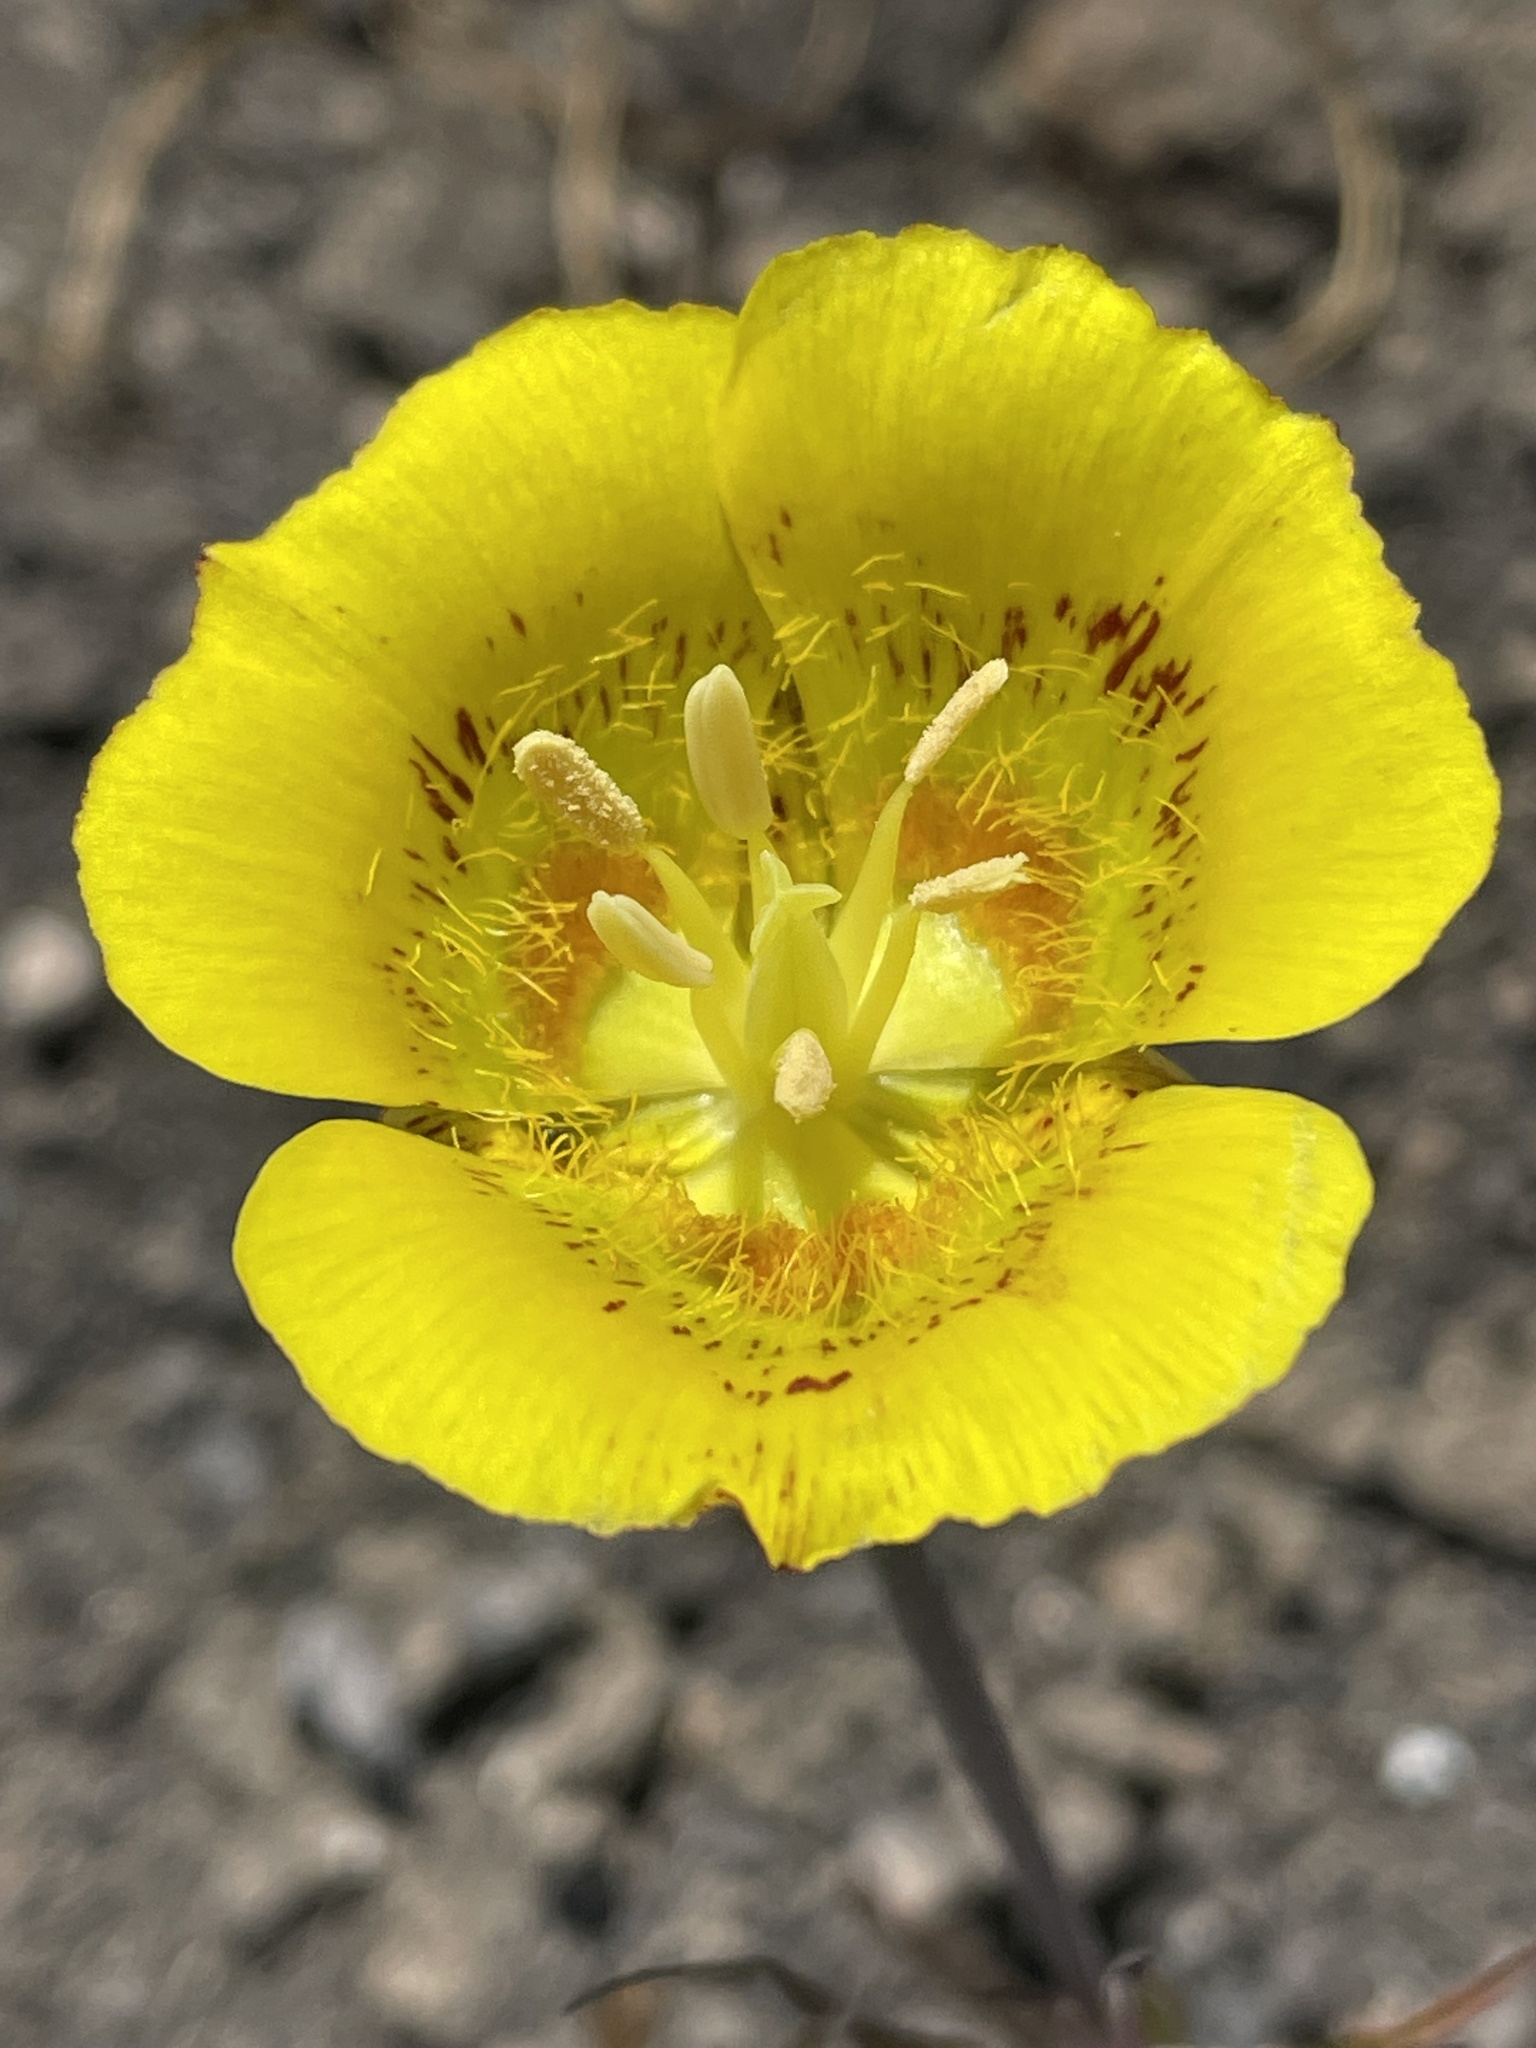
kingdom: Plantae
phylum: Tracheophyta
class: Liliopsida
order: Liliales
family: Liliaceae
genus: Calochortus
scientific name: Calochortus luteus
